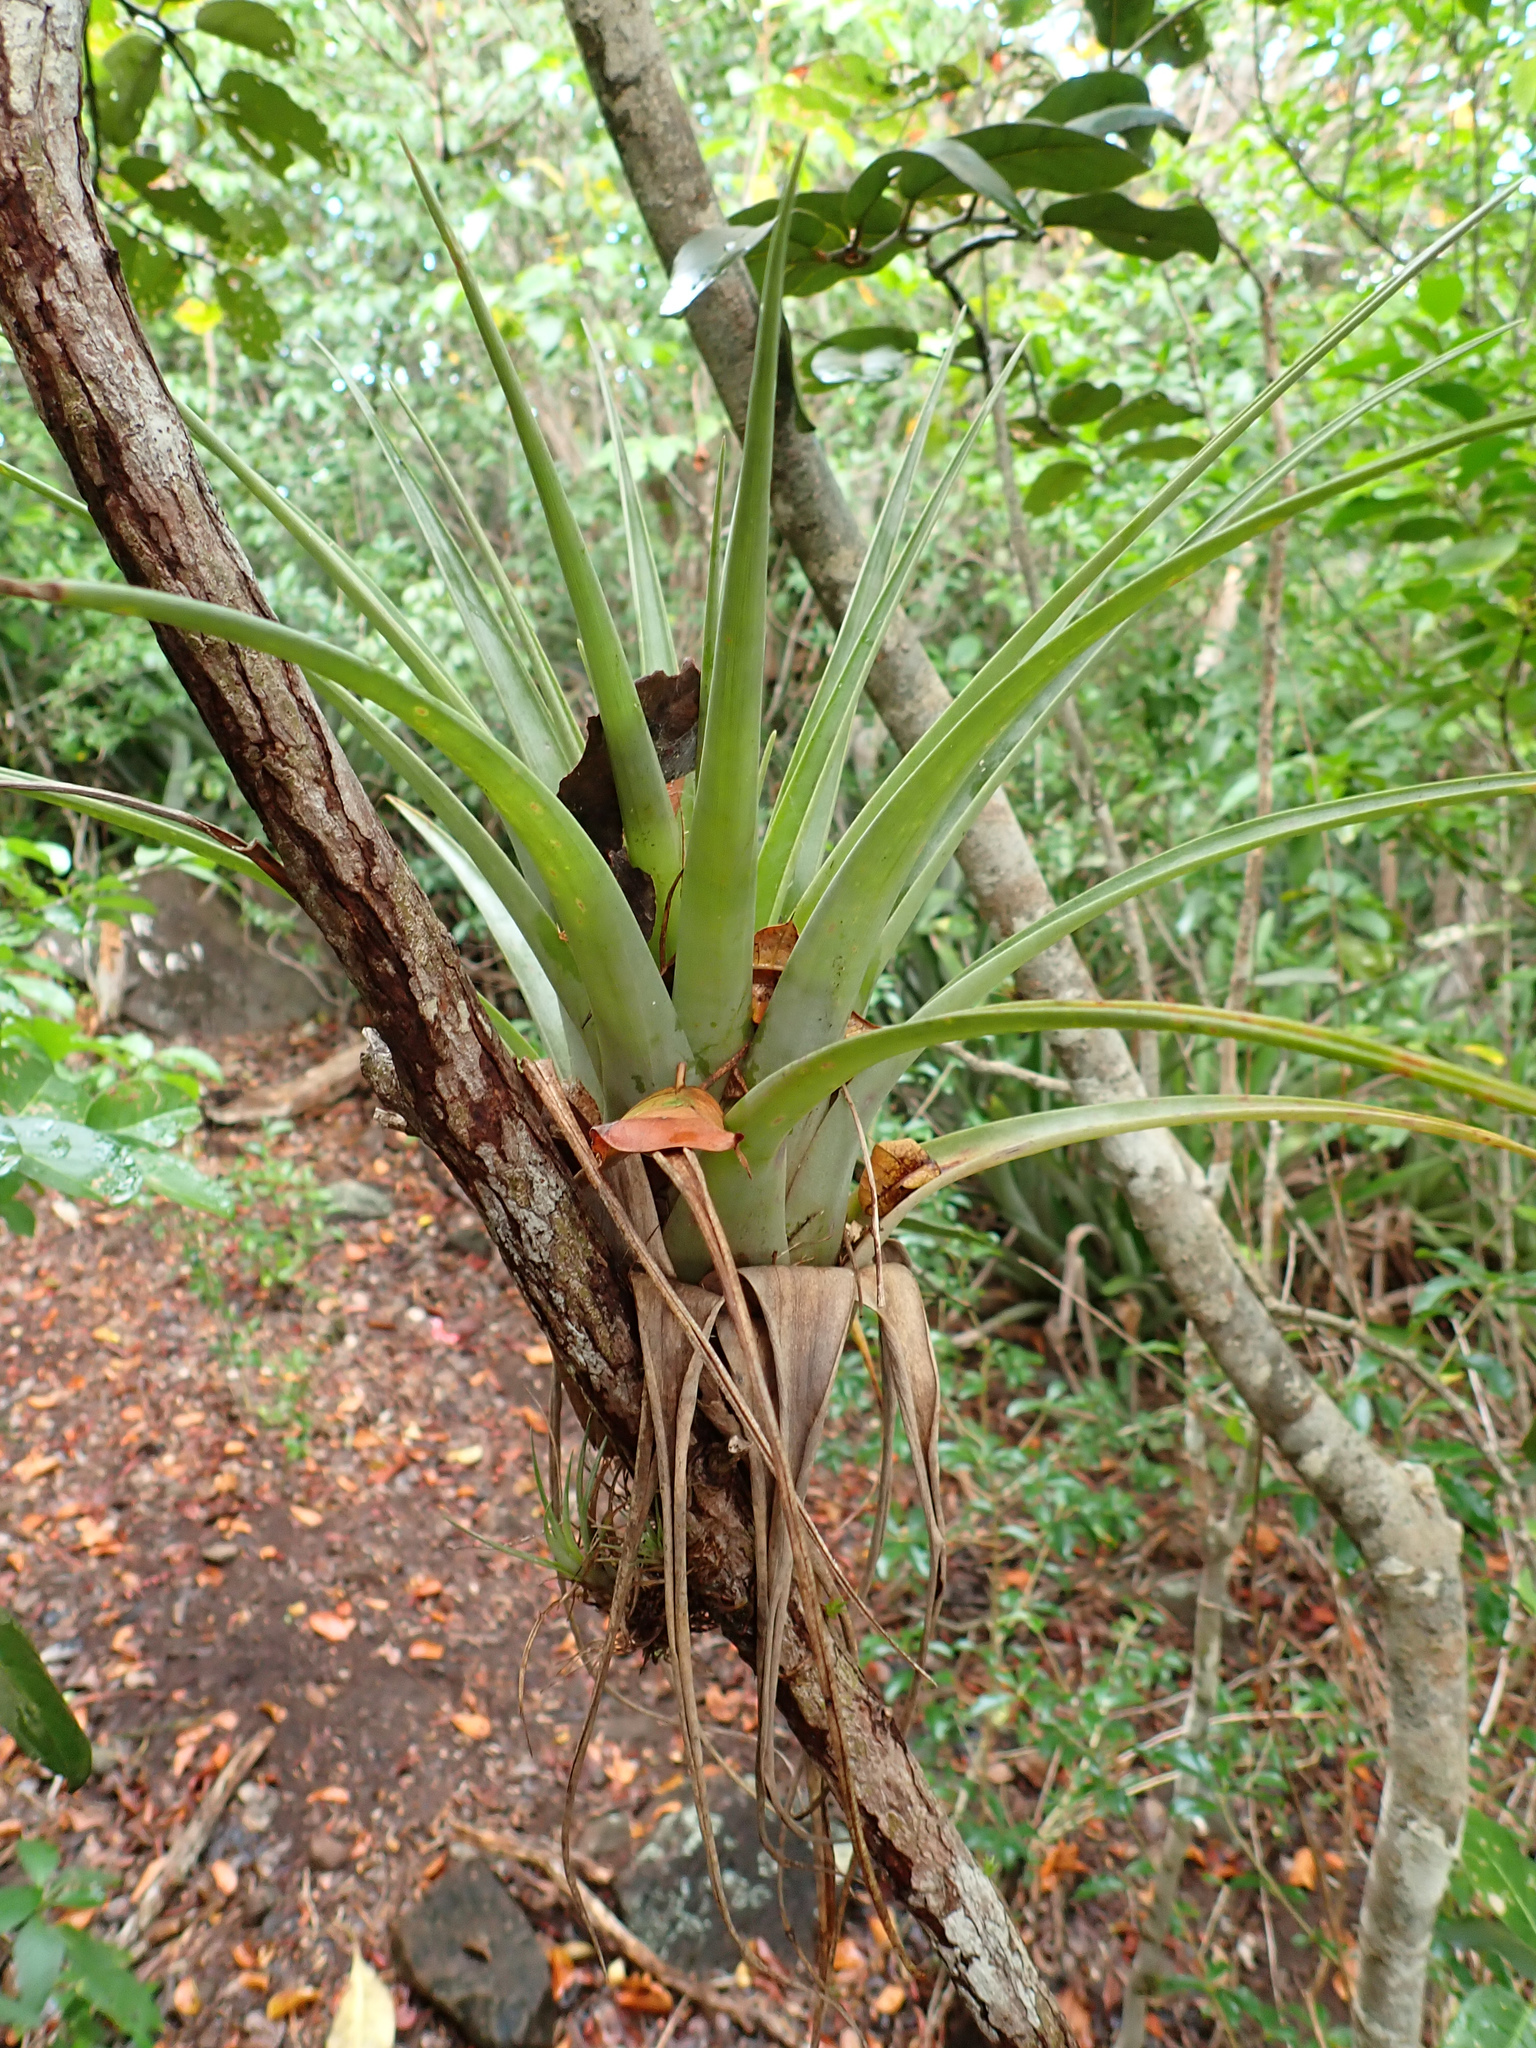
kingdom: Plantae
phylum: Tracheophyta
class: Liliopsida
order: Poales
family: Bromeliaceae
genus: Tillandsia
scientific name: Tillandsia utriculata
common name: Wild pine
